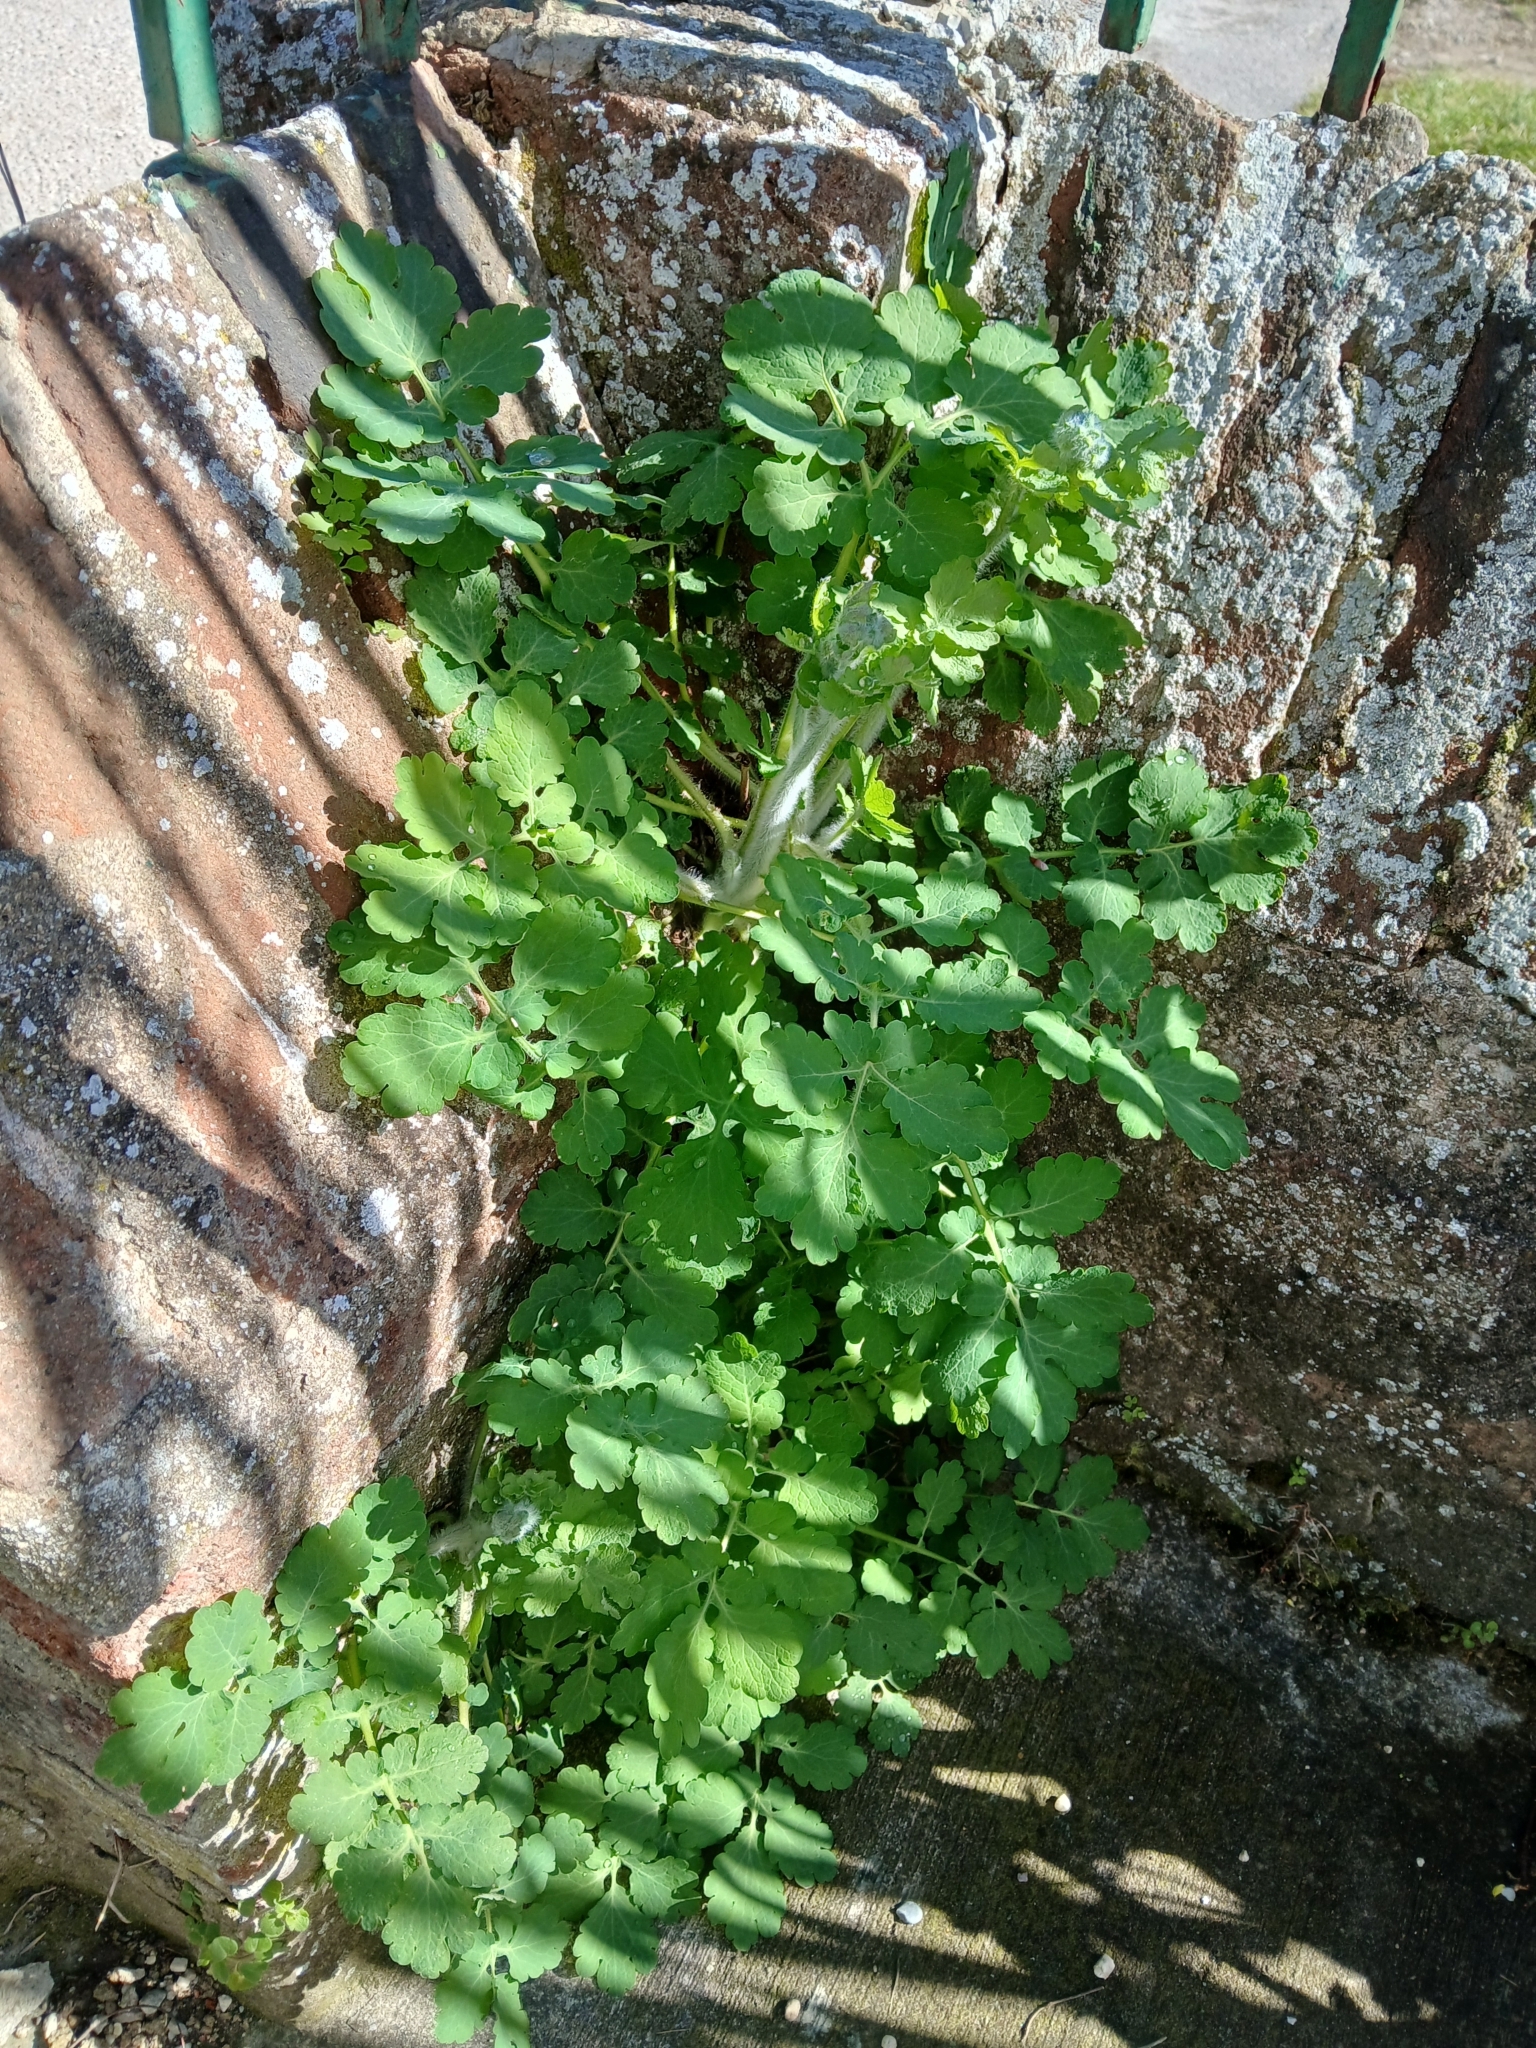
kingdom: Plantae
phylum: Tracheophyta
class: Magnoliopsida
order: Ranunculales
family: Papaveraceae
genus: Chelidonium
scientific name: Chelidonium majus
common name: Greater celandine
